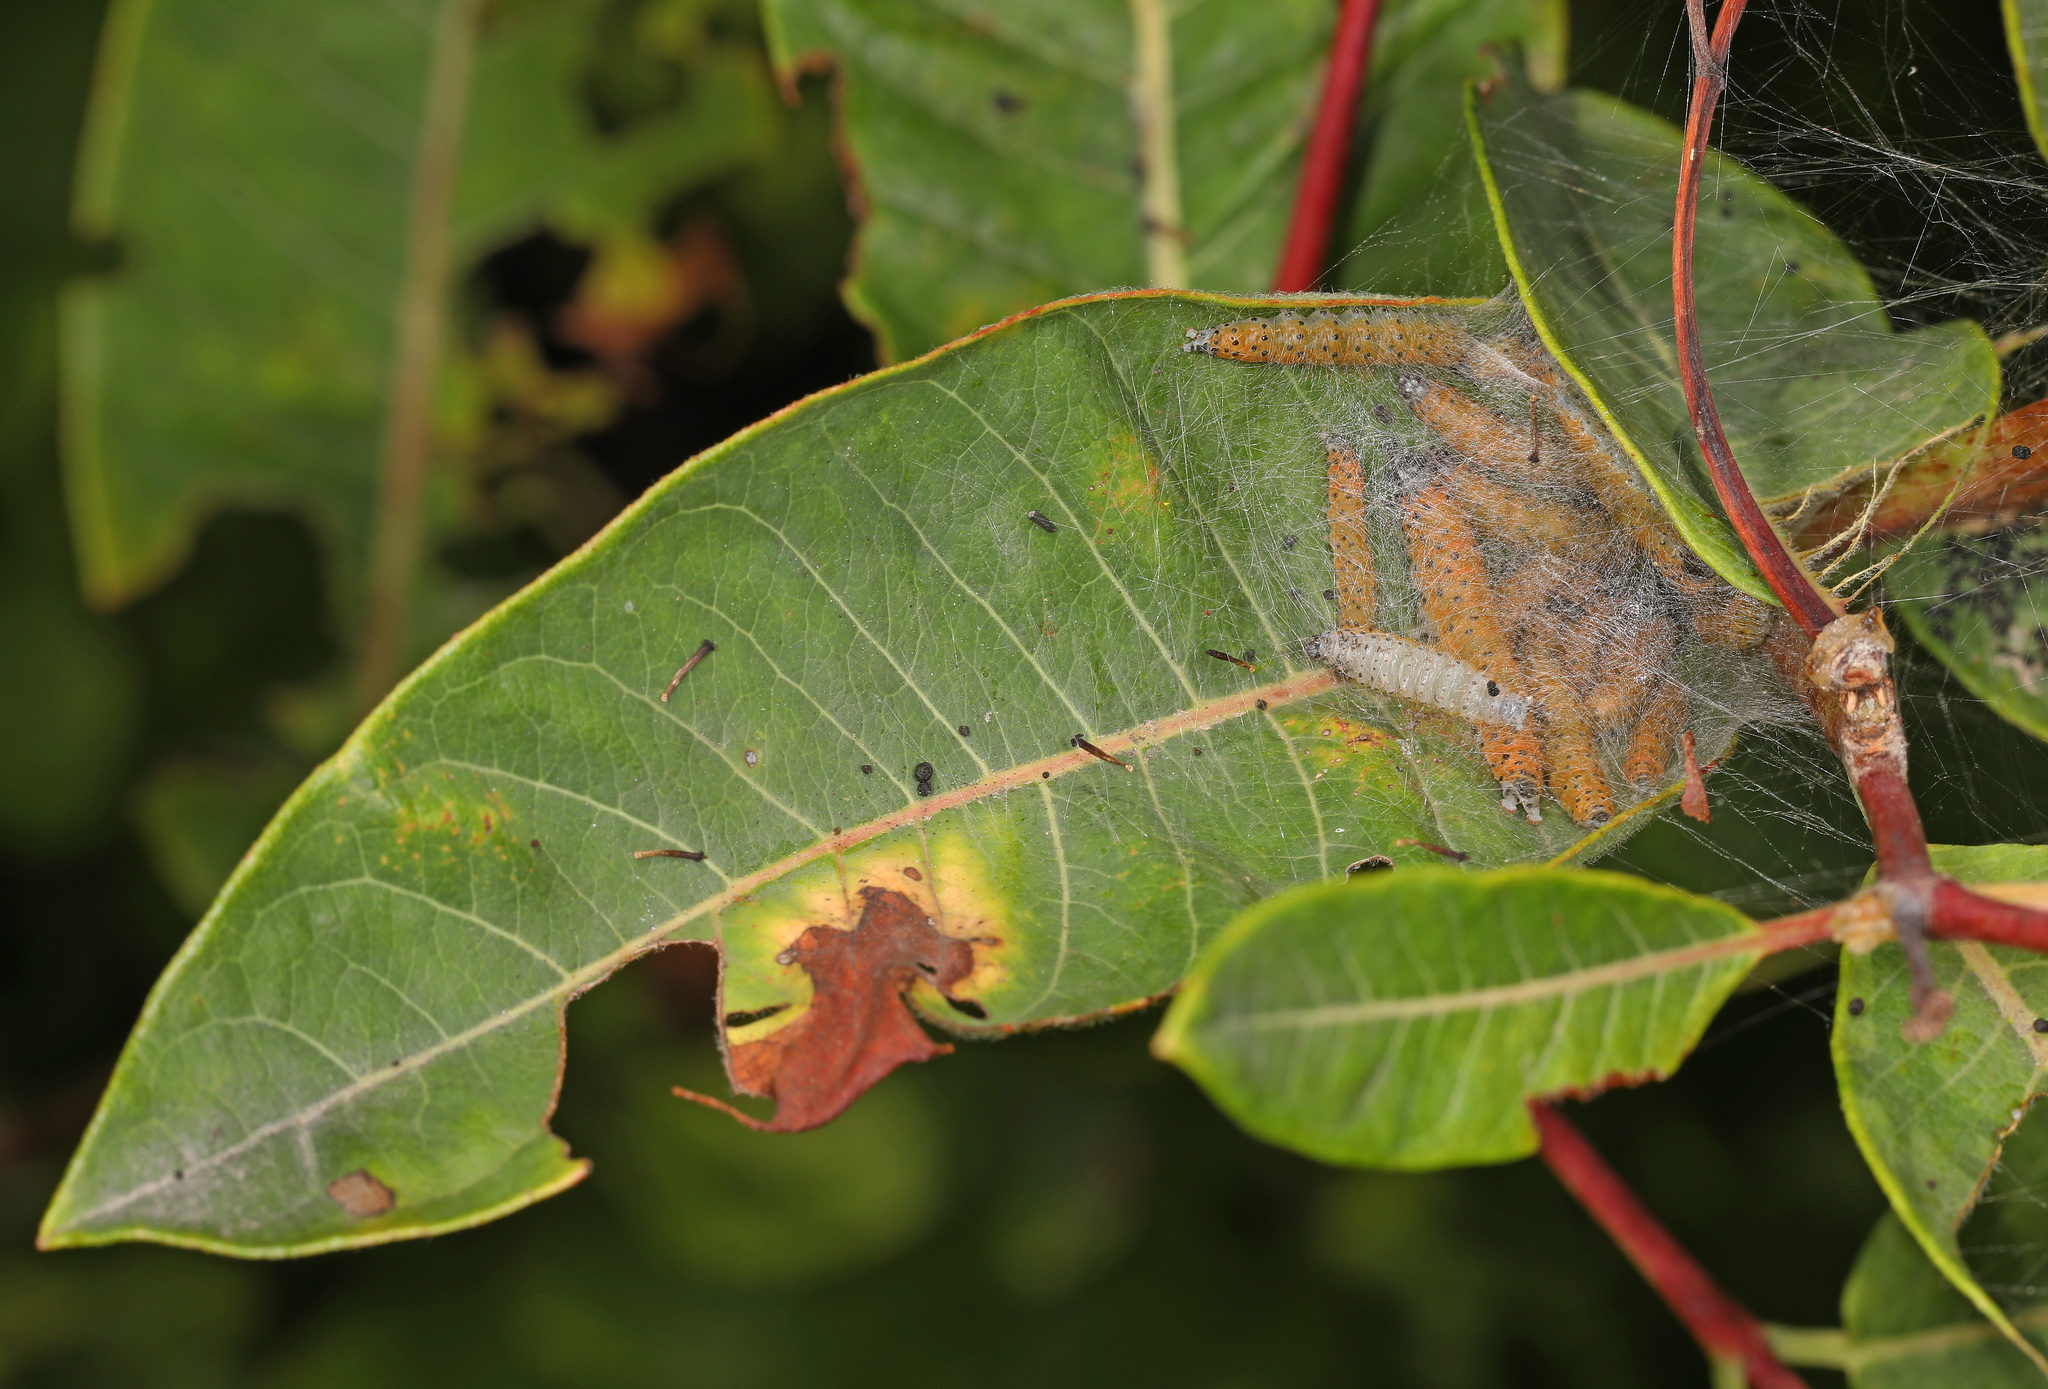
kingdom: Animalia
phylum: Arthropoda
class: Insecta
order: Lepidoptera
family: Crambidae
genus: Saucrobotys
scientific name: Saucrobotys futilalis
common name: Dogbane saucrobotys moth
